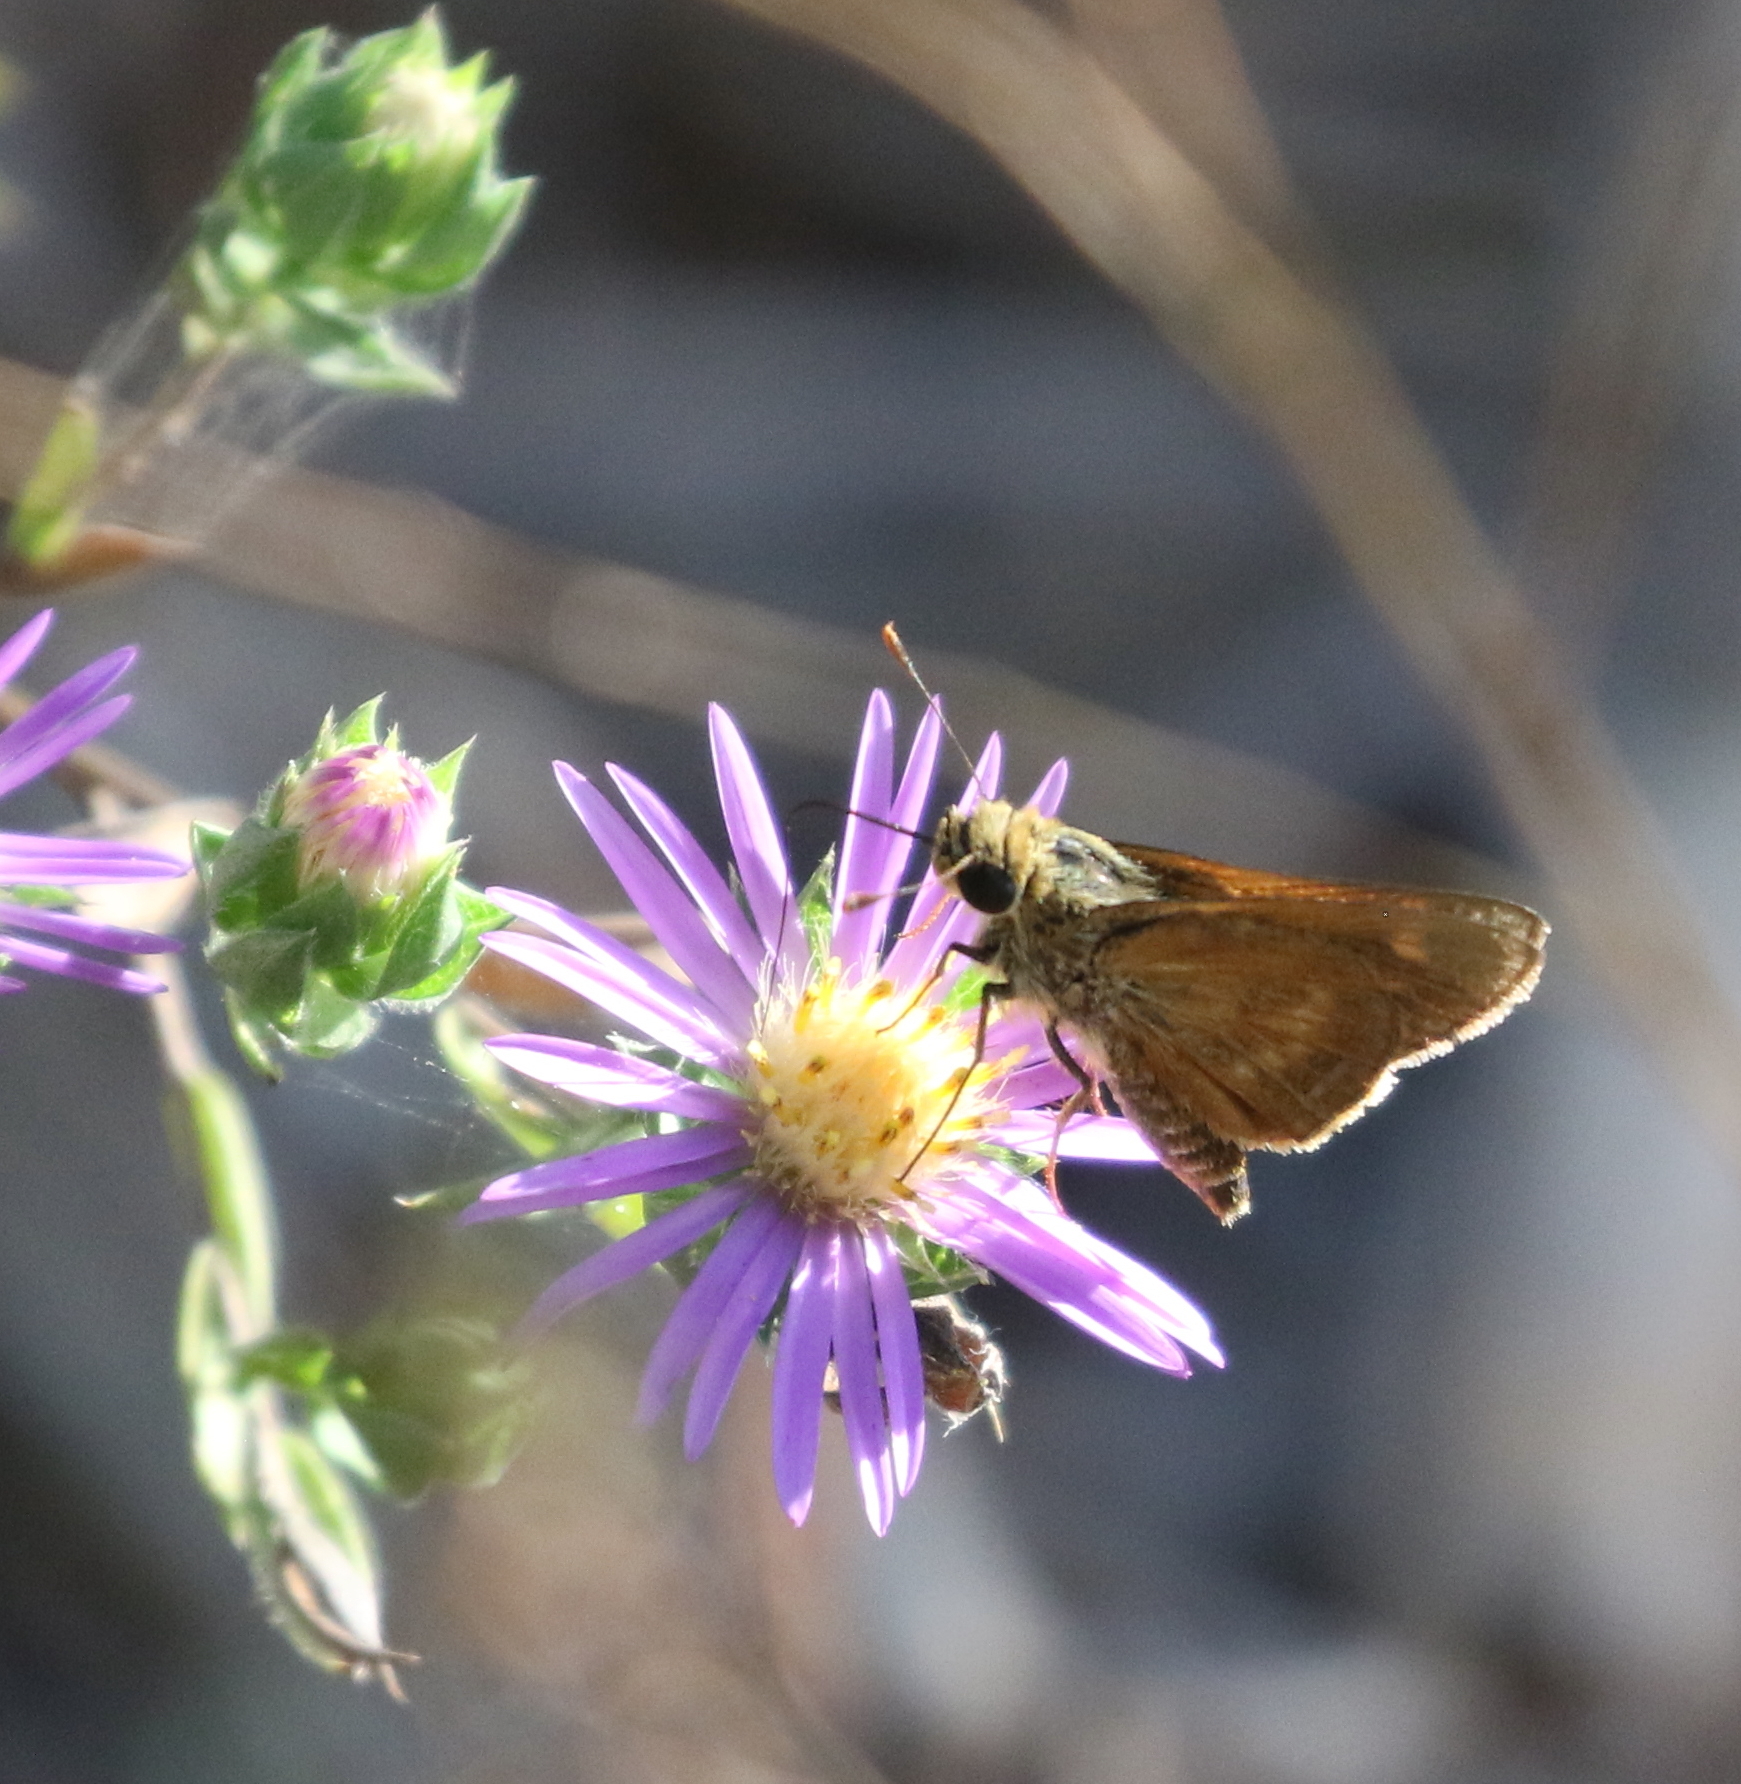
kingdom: Animalia
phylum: Arthropoda
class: Insecta
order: Lepidoptera
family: Hesperiidae
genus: Polites
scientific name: Polites otho
